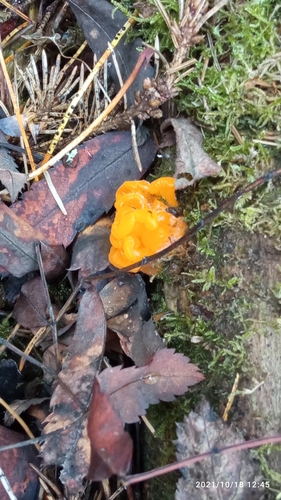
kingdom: Fungi
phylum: Basidiomycota
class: Dacrymycetes
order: Dacrymycetales
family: Dacrymycetaceae
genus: Dacrymyces
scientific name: Dacrymyces chrysospermus
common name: Orange jelly spot
